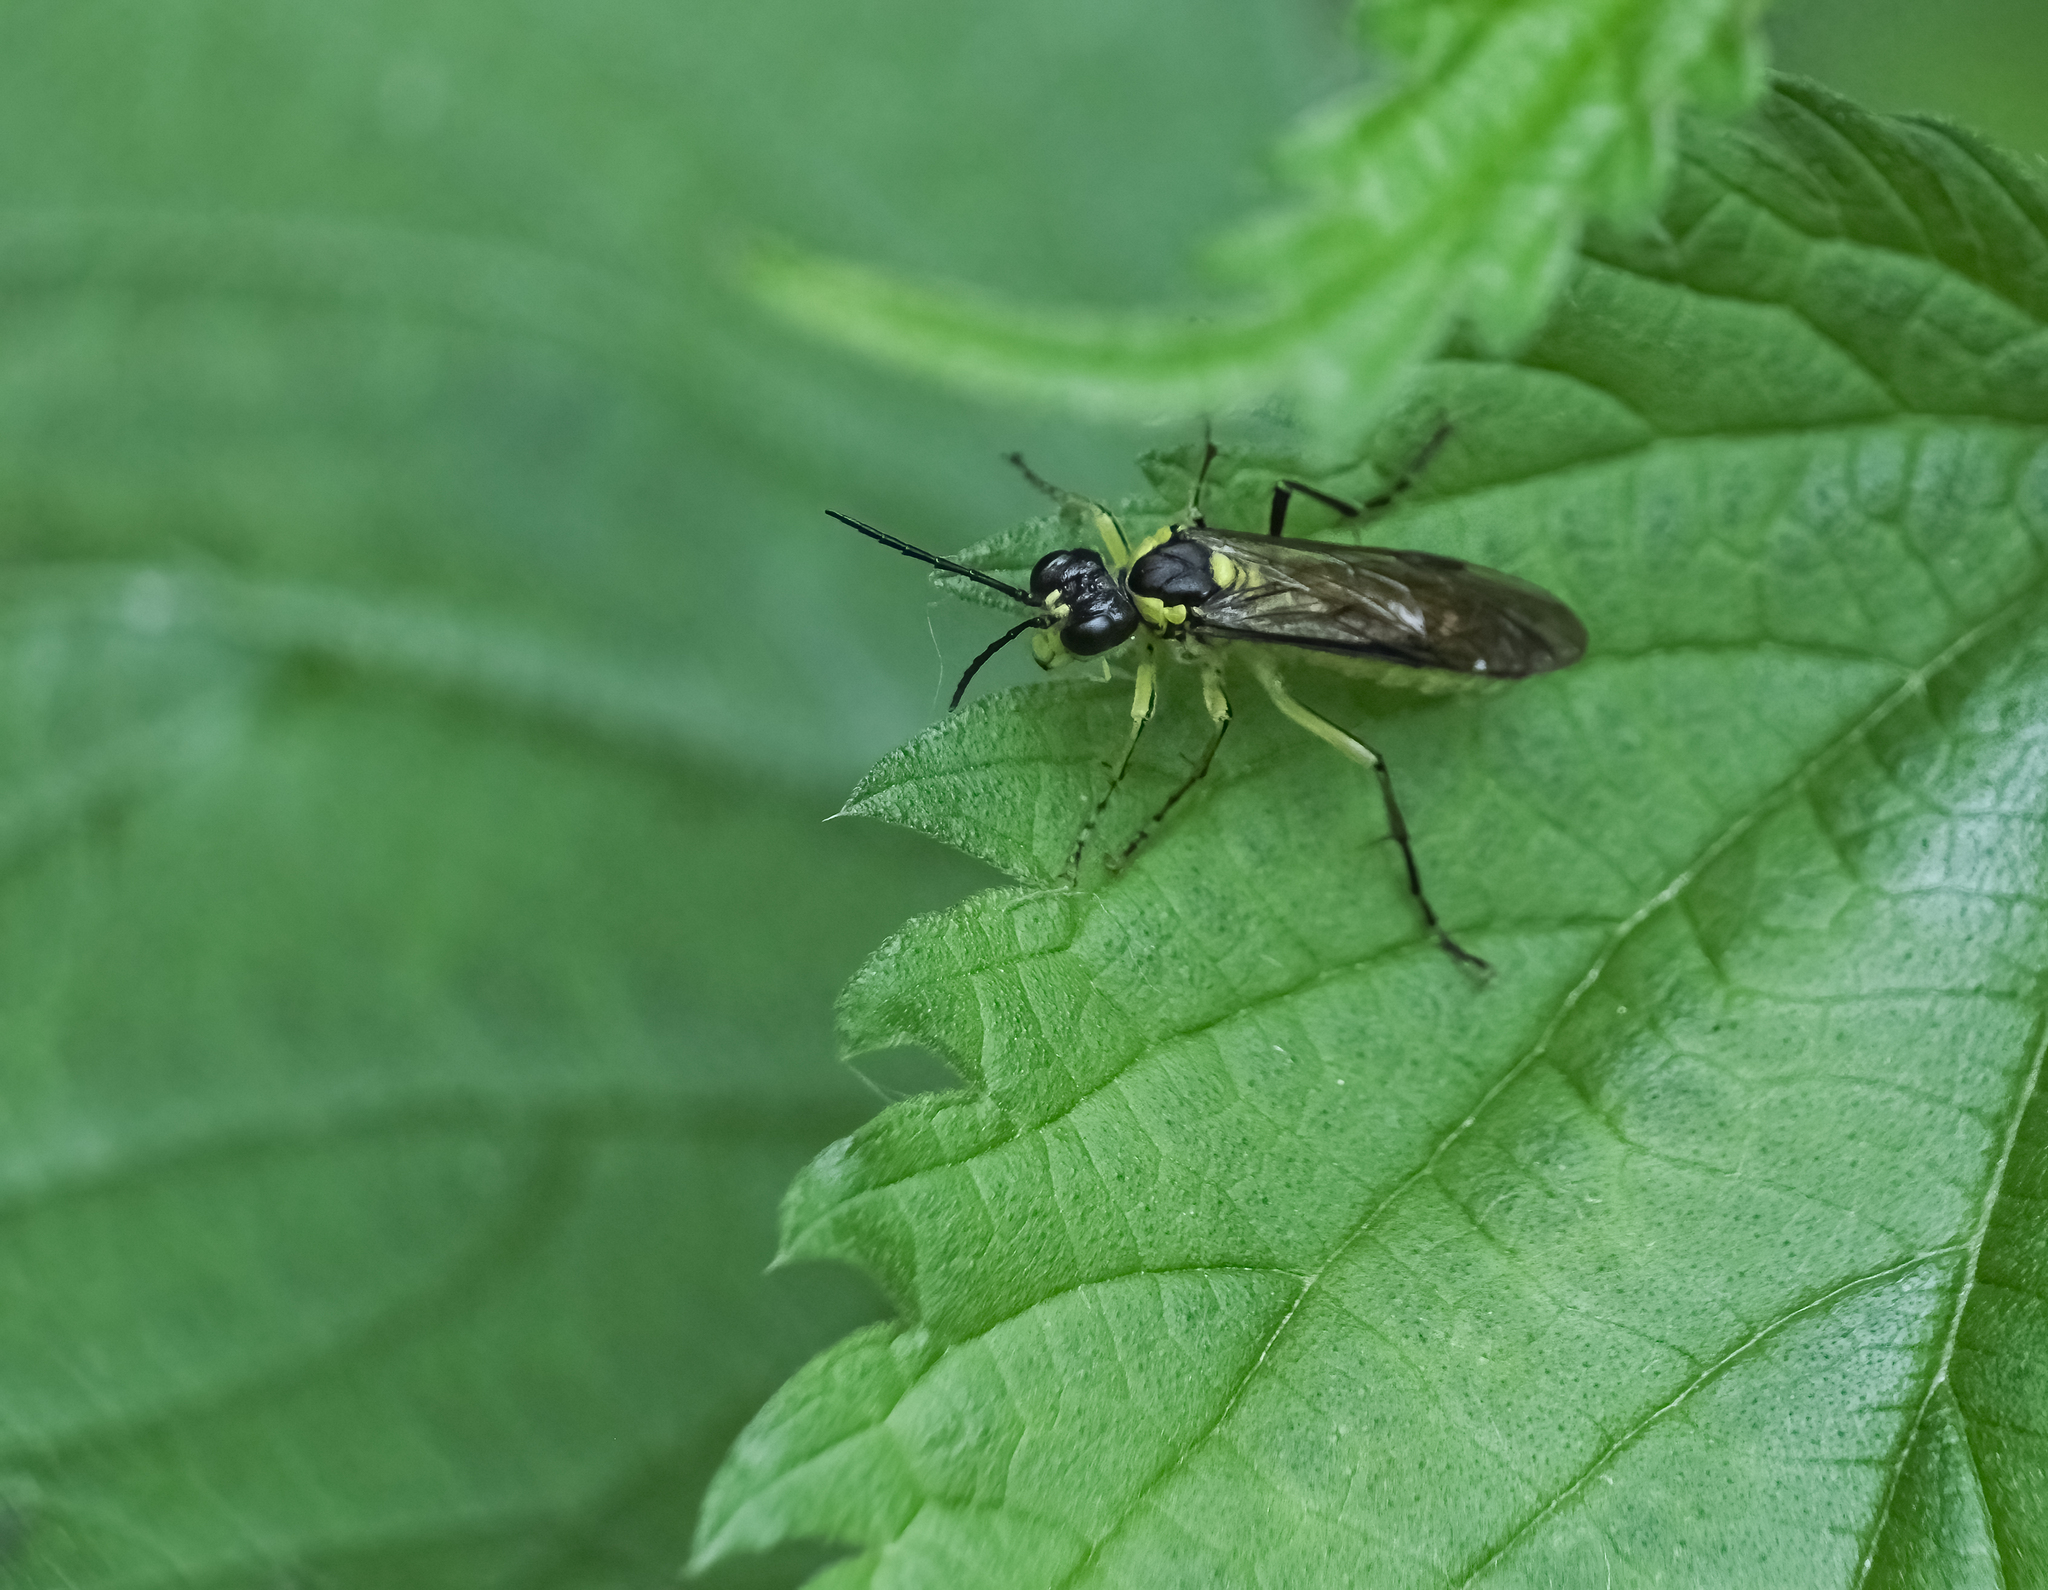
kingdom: Animalia
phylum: Arthropoda
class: Insecta
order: Hymenoptera
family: Tenthredinidae
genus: Tenthredo
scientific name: Tenthredo mesomela
